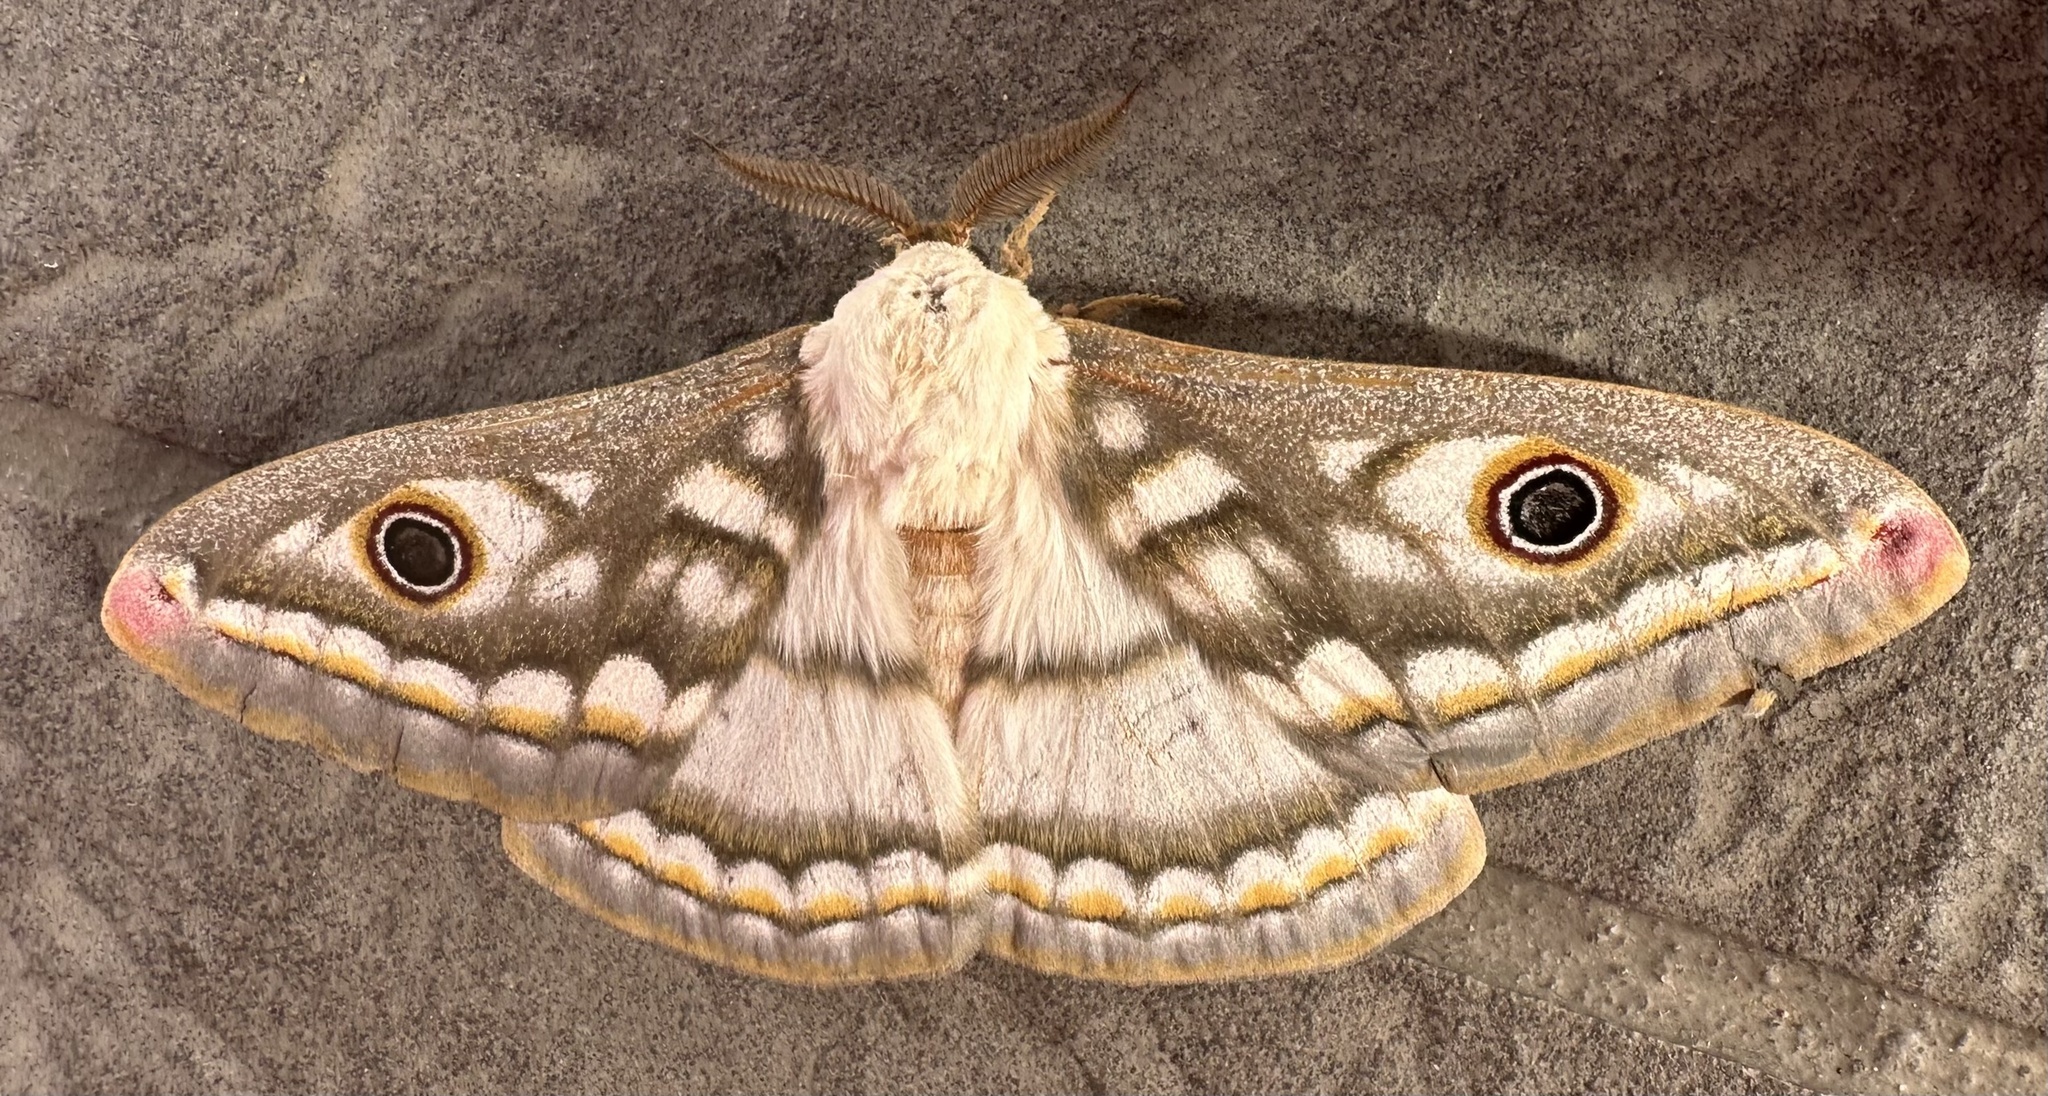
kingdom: Animalia
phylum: Arthropoda
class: Insecta
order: Lepidoptera
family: Saturniidae
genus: Heniocha
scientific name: Heniocha bioculata
